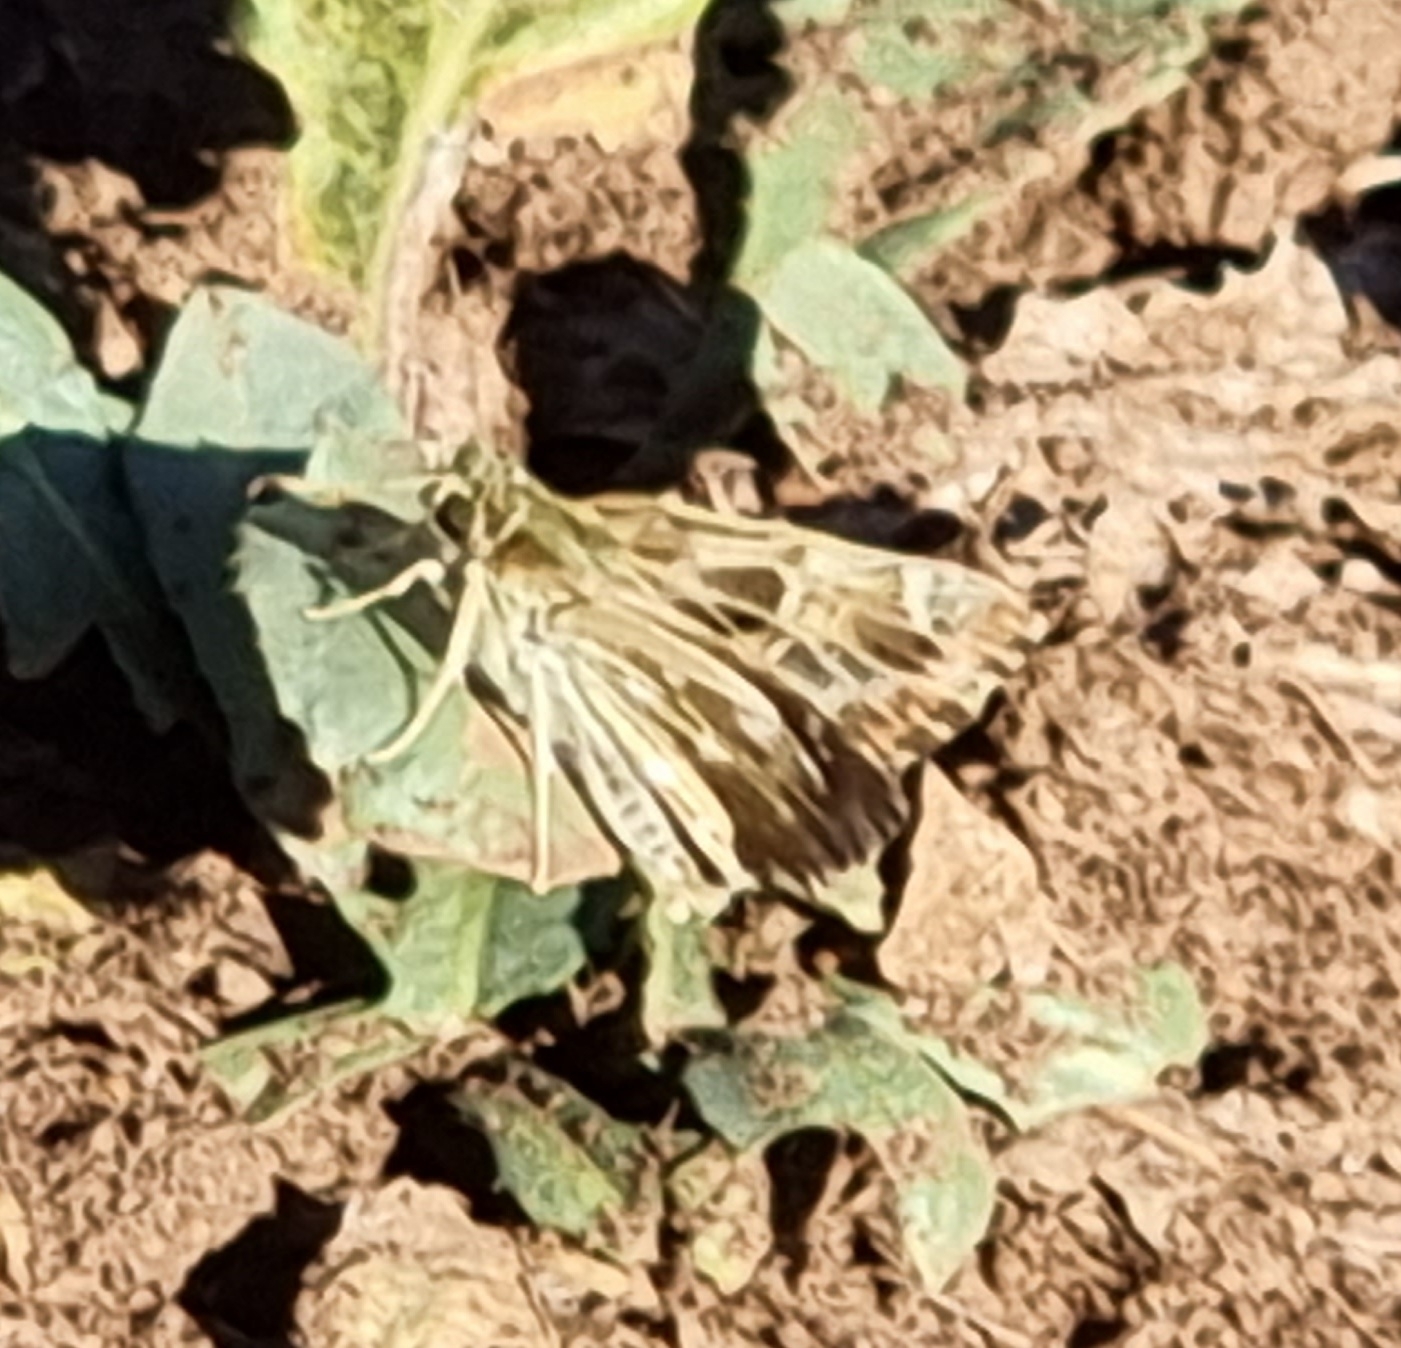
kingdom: Animalia
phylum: Arthropoda
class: Insecta
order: Lepidoptera
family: Hesperiidae
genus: Carcharodus
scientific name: Carcharodus alceae
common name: Mallow skipper
